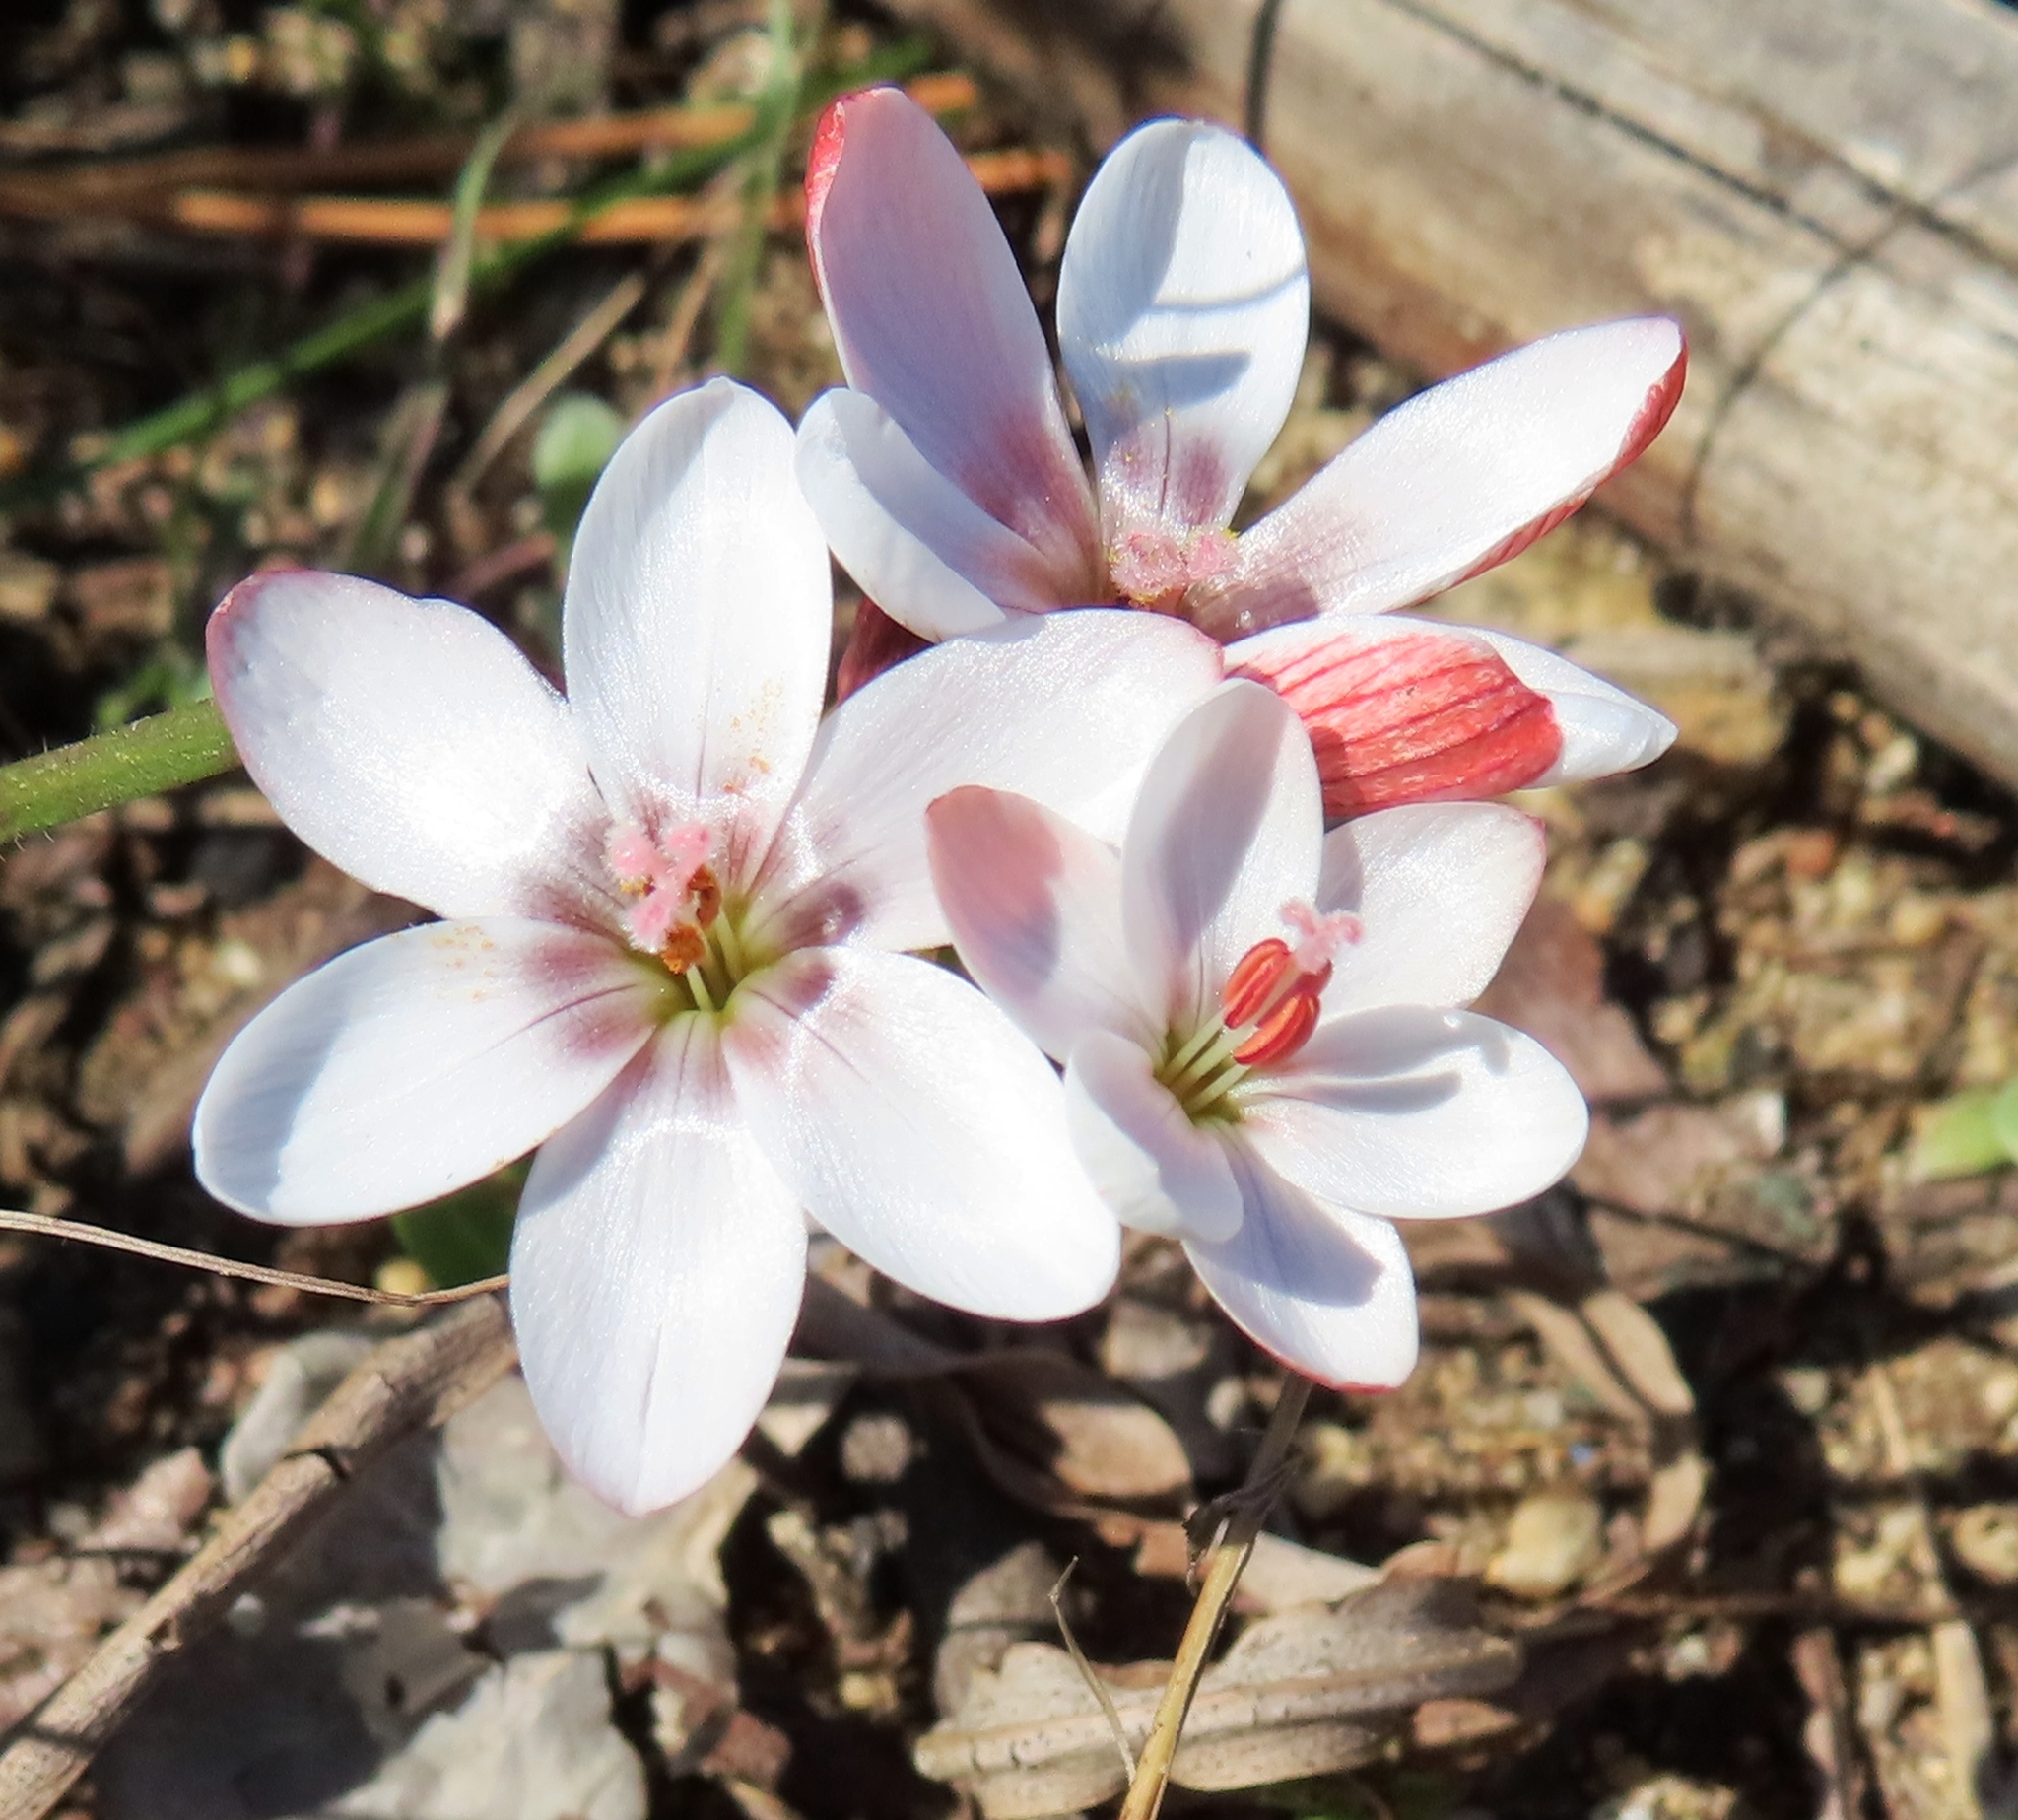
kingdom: Plantae
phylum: Tracheophyta
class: Liliopsida
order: Asparagales
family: Iridaceae
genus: Geissorhiza
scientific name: Geissorhiza ovata
